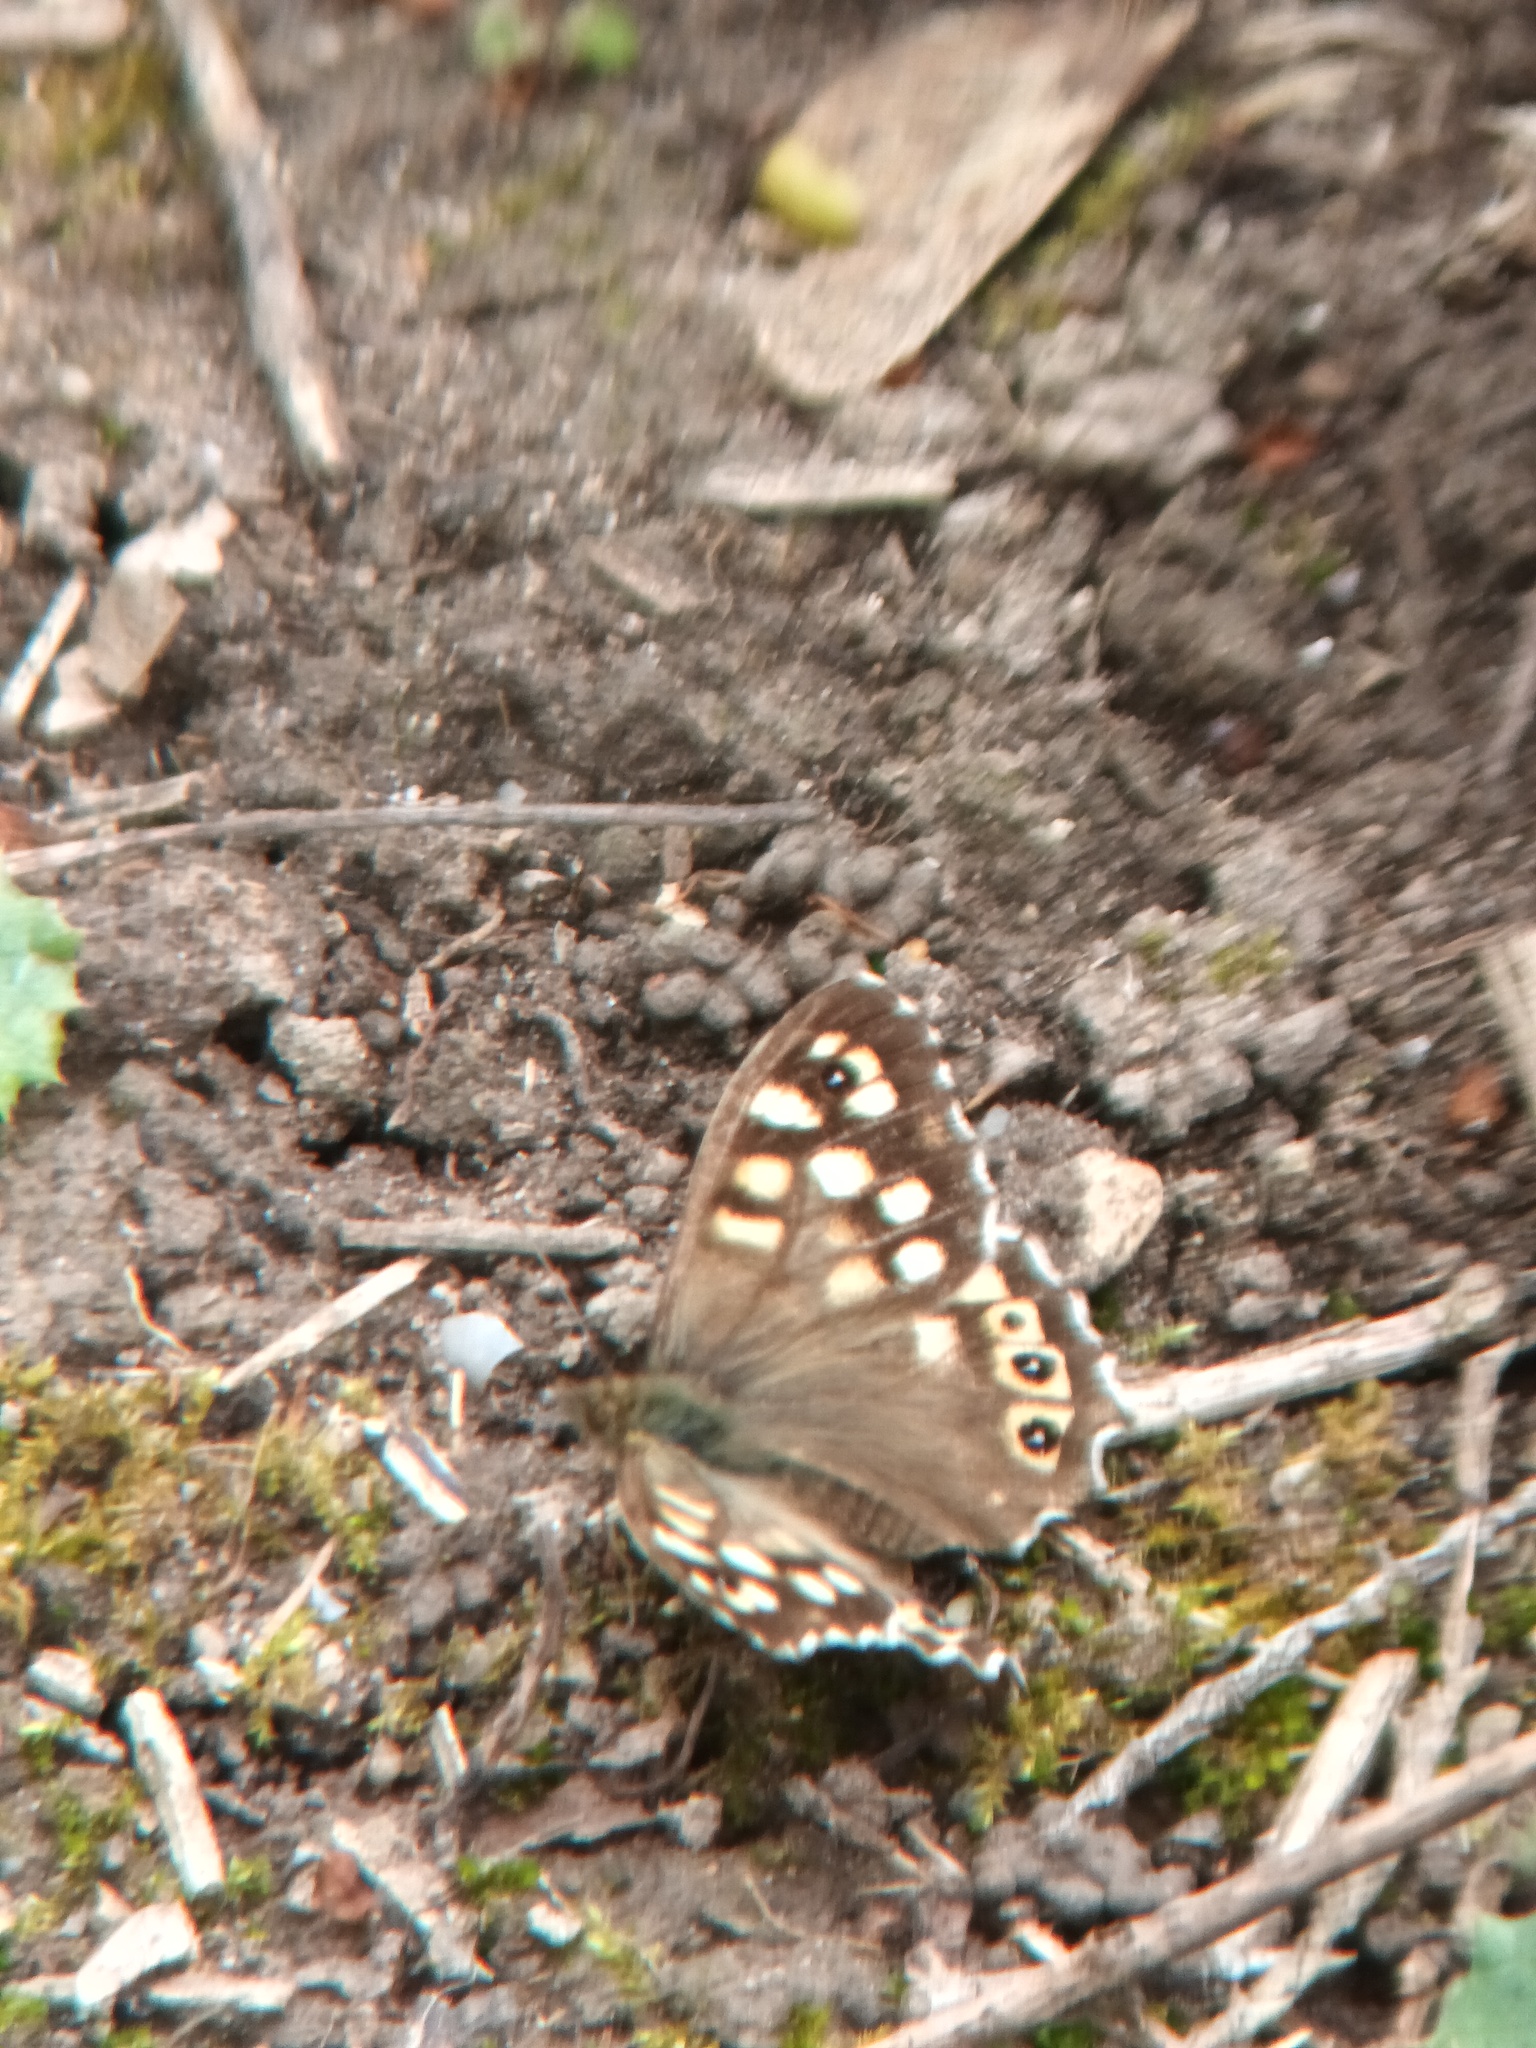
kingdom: Animalia
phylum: Arthropoda
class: Insecta
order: Lepidoptera
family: Nymphalidae
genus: Pararge
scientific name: Pararge aegeria
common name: Speckled wood
